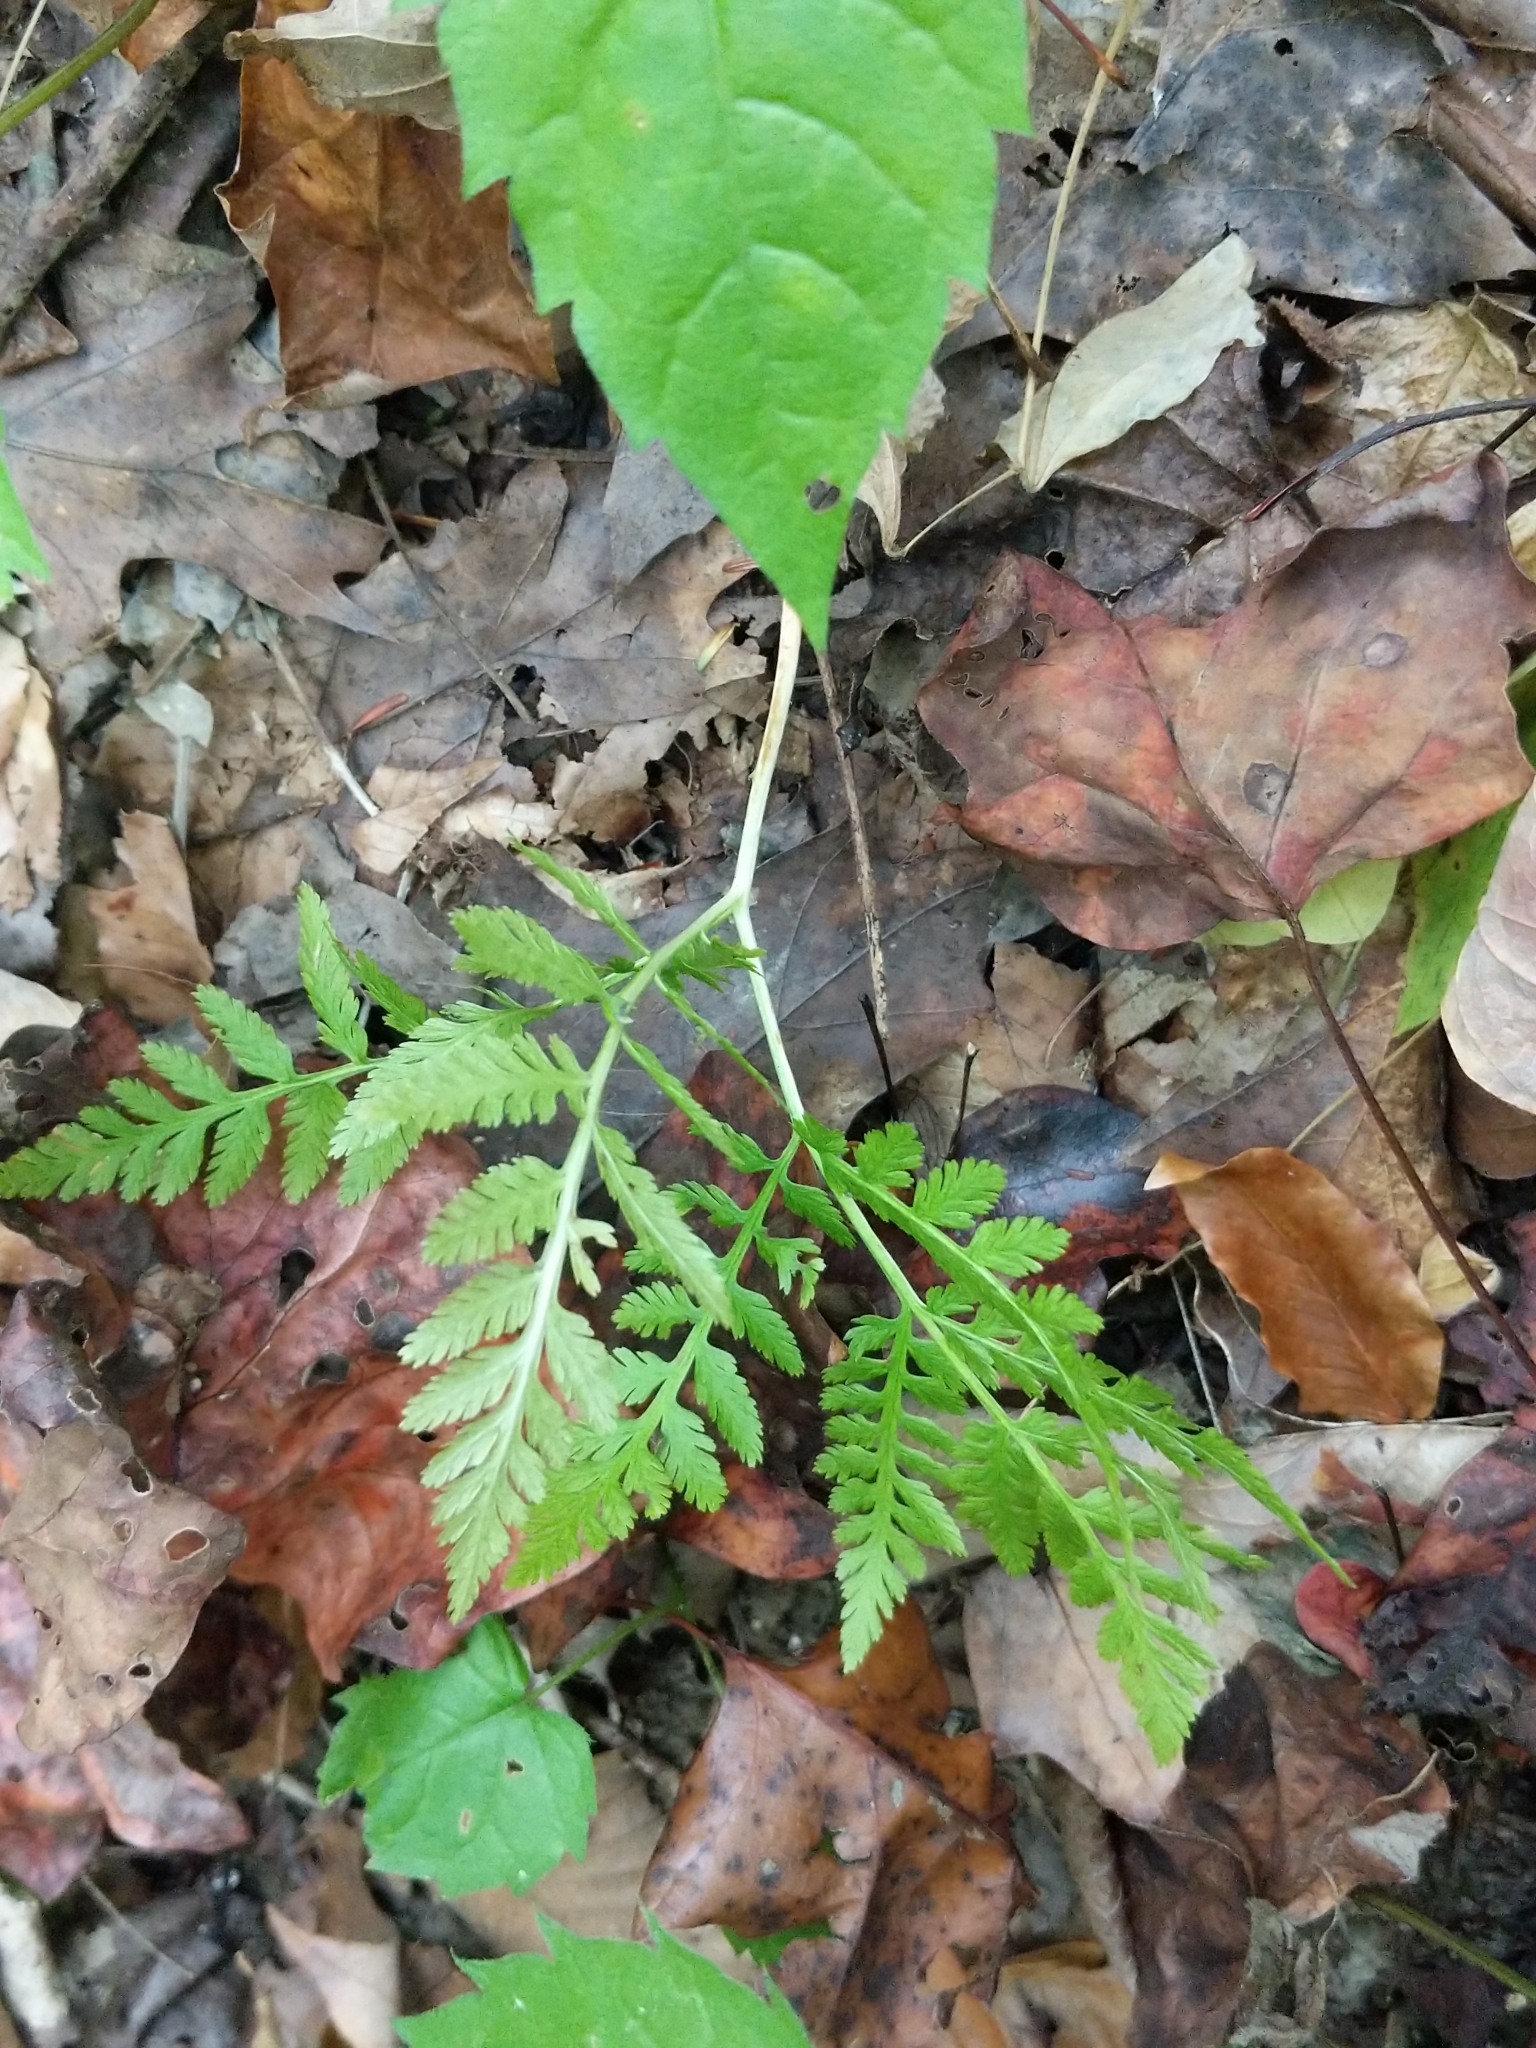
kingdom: Plantae
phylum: Tracheophyta
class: Polypodiopsida
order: Ophioglossales
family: Ophioglossaceae
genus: Botrypus
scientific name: Botrypus virginianus
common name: Common grapefern
